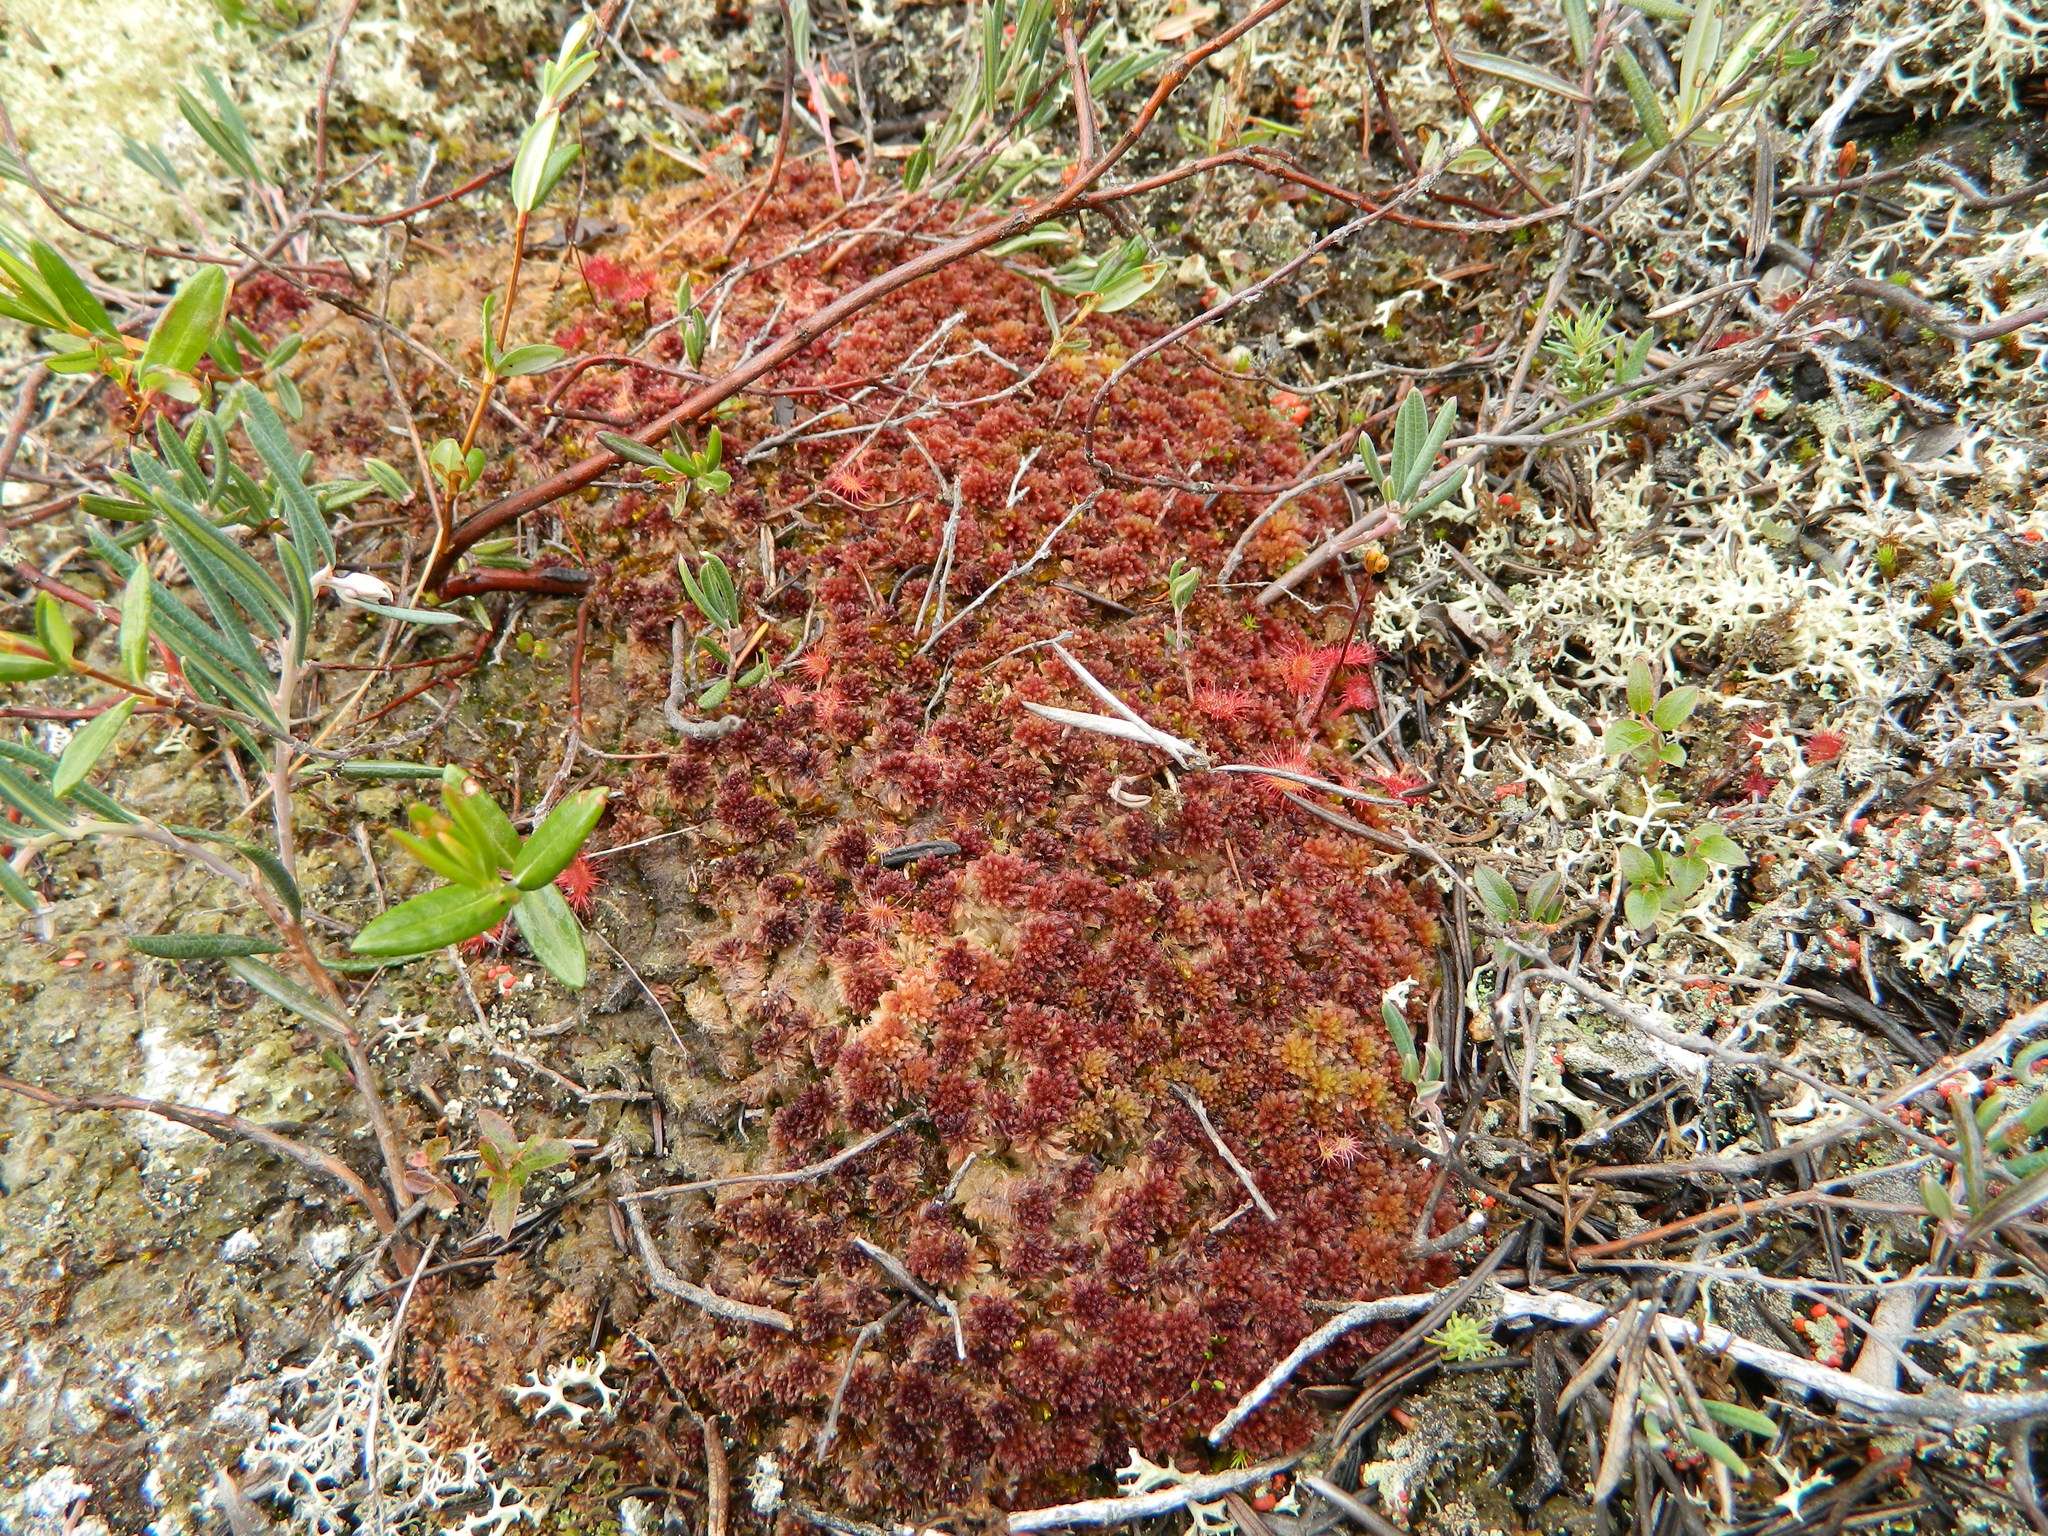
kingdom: Plantae
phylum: Bryophyta
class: Sphagnopsida
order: Sphagnales
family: Sphagnaceae
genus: Sphagnum
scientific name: Sphagnum capillifolium
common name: Small red peat moss
